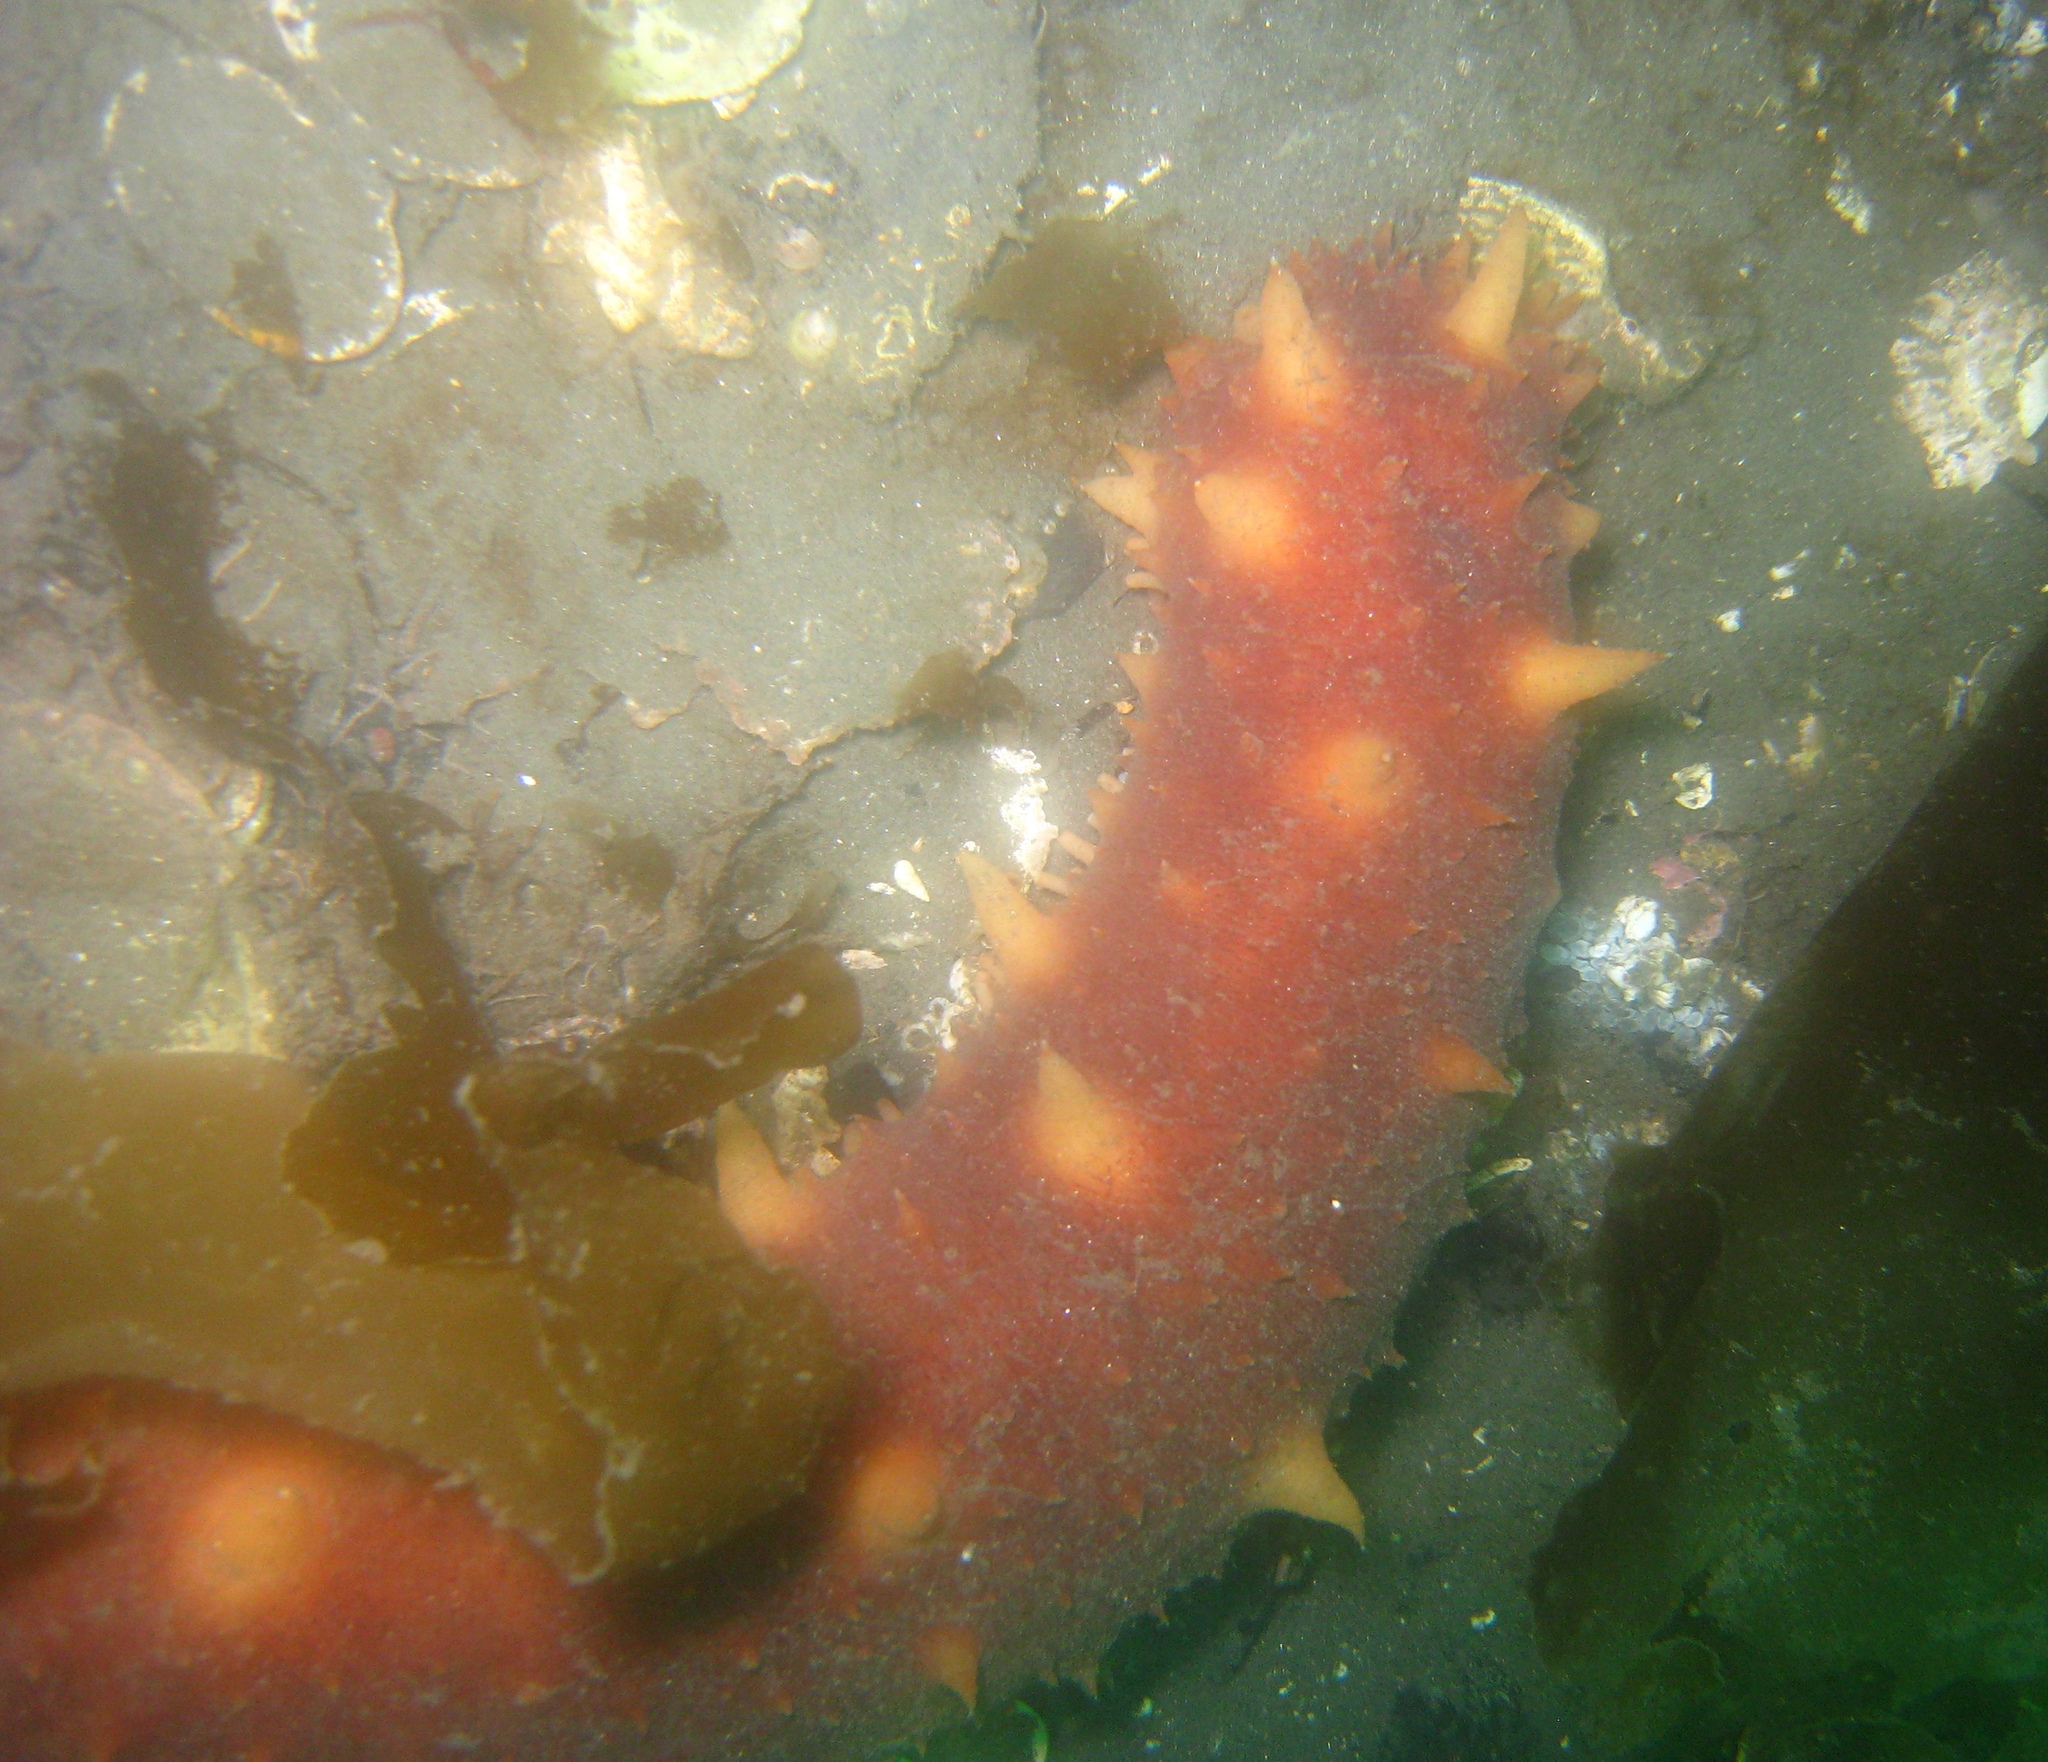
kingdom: Animalia
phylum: Echinodermata
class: Holothuroidea
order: Synallactida
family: Stichopodidae
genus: Apostichopus
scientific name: Apostichopus californicus
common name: California sea cucumber
